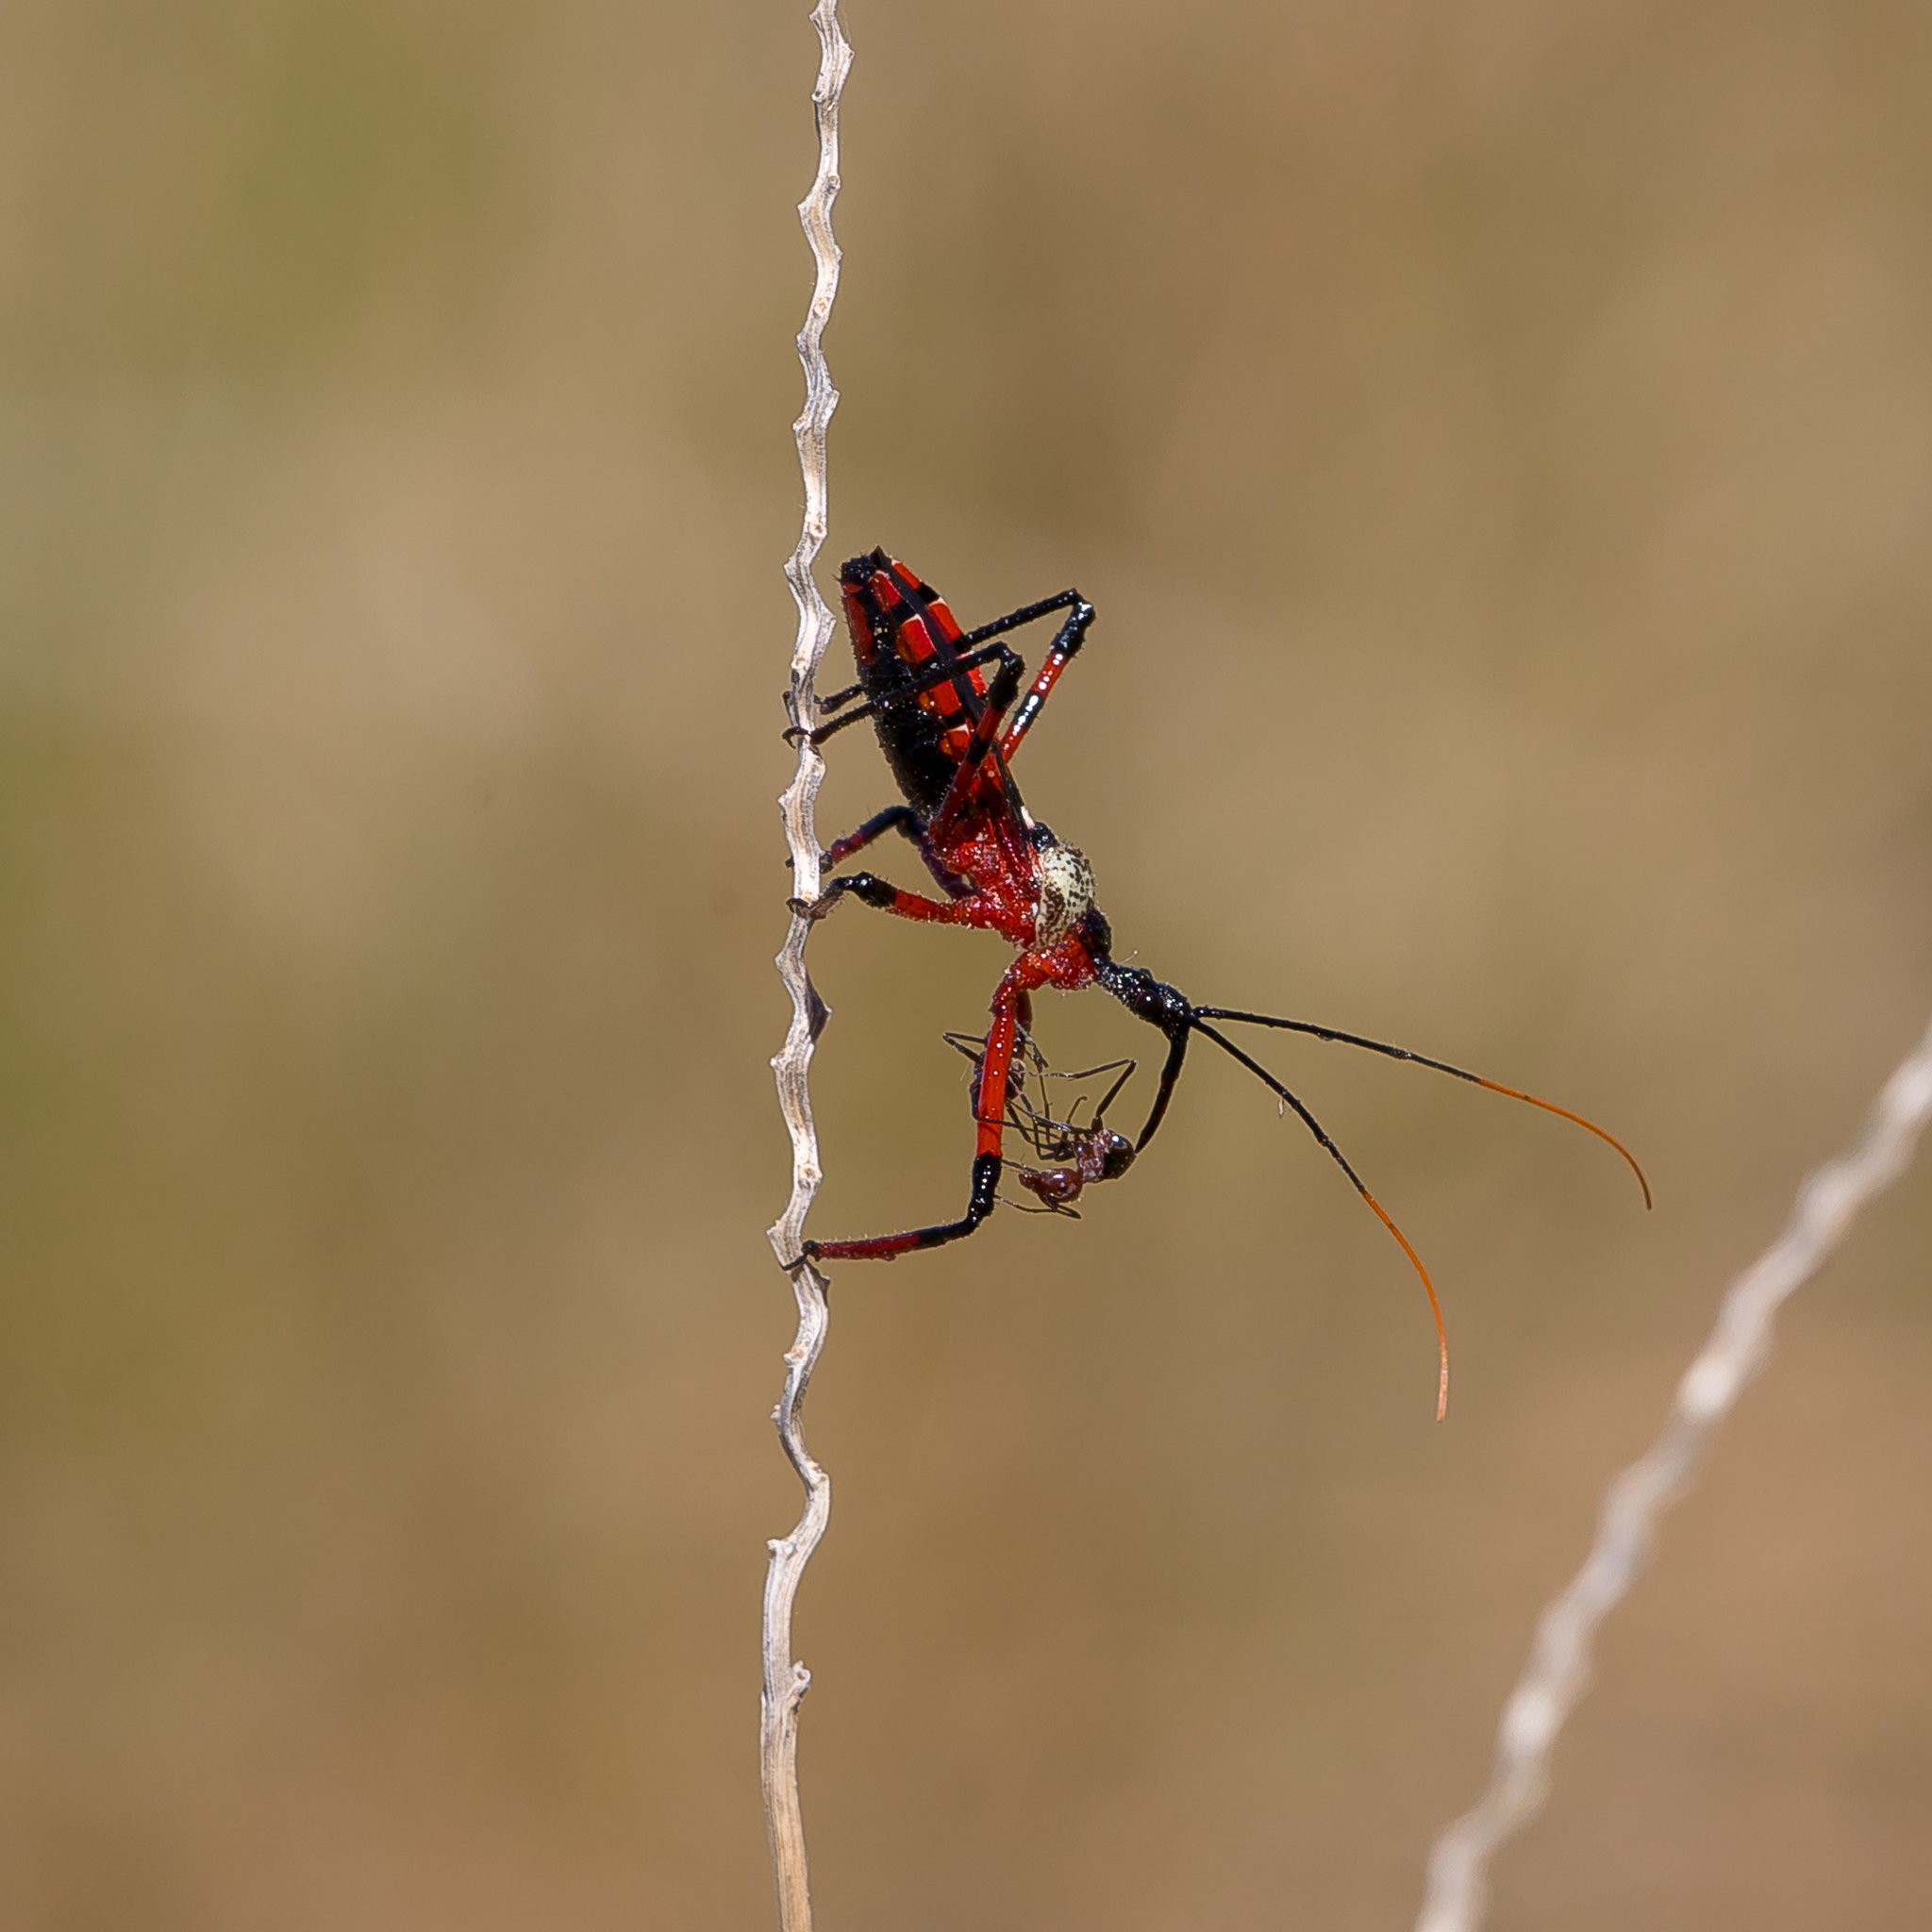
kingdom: Animalia
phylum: Arthropoda
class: Insecta
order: Hemiptera
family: Reduviidae
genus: Poecilosphodrus
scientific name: Poecilosphodrus gratiosus
